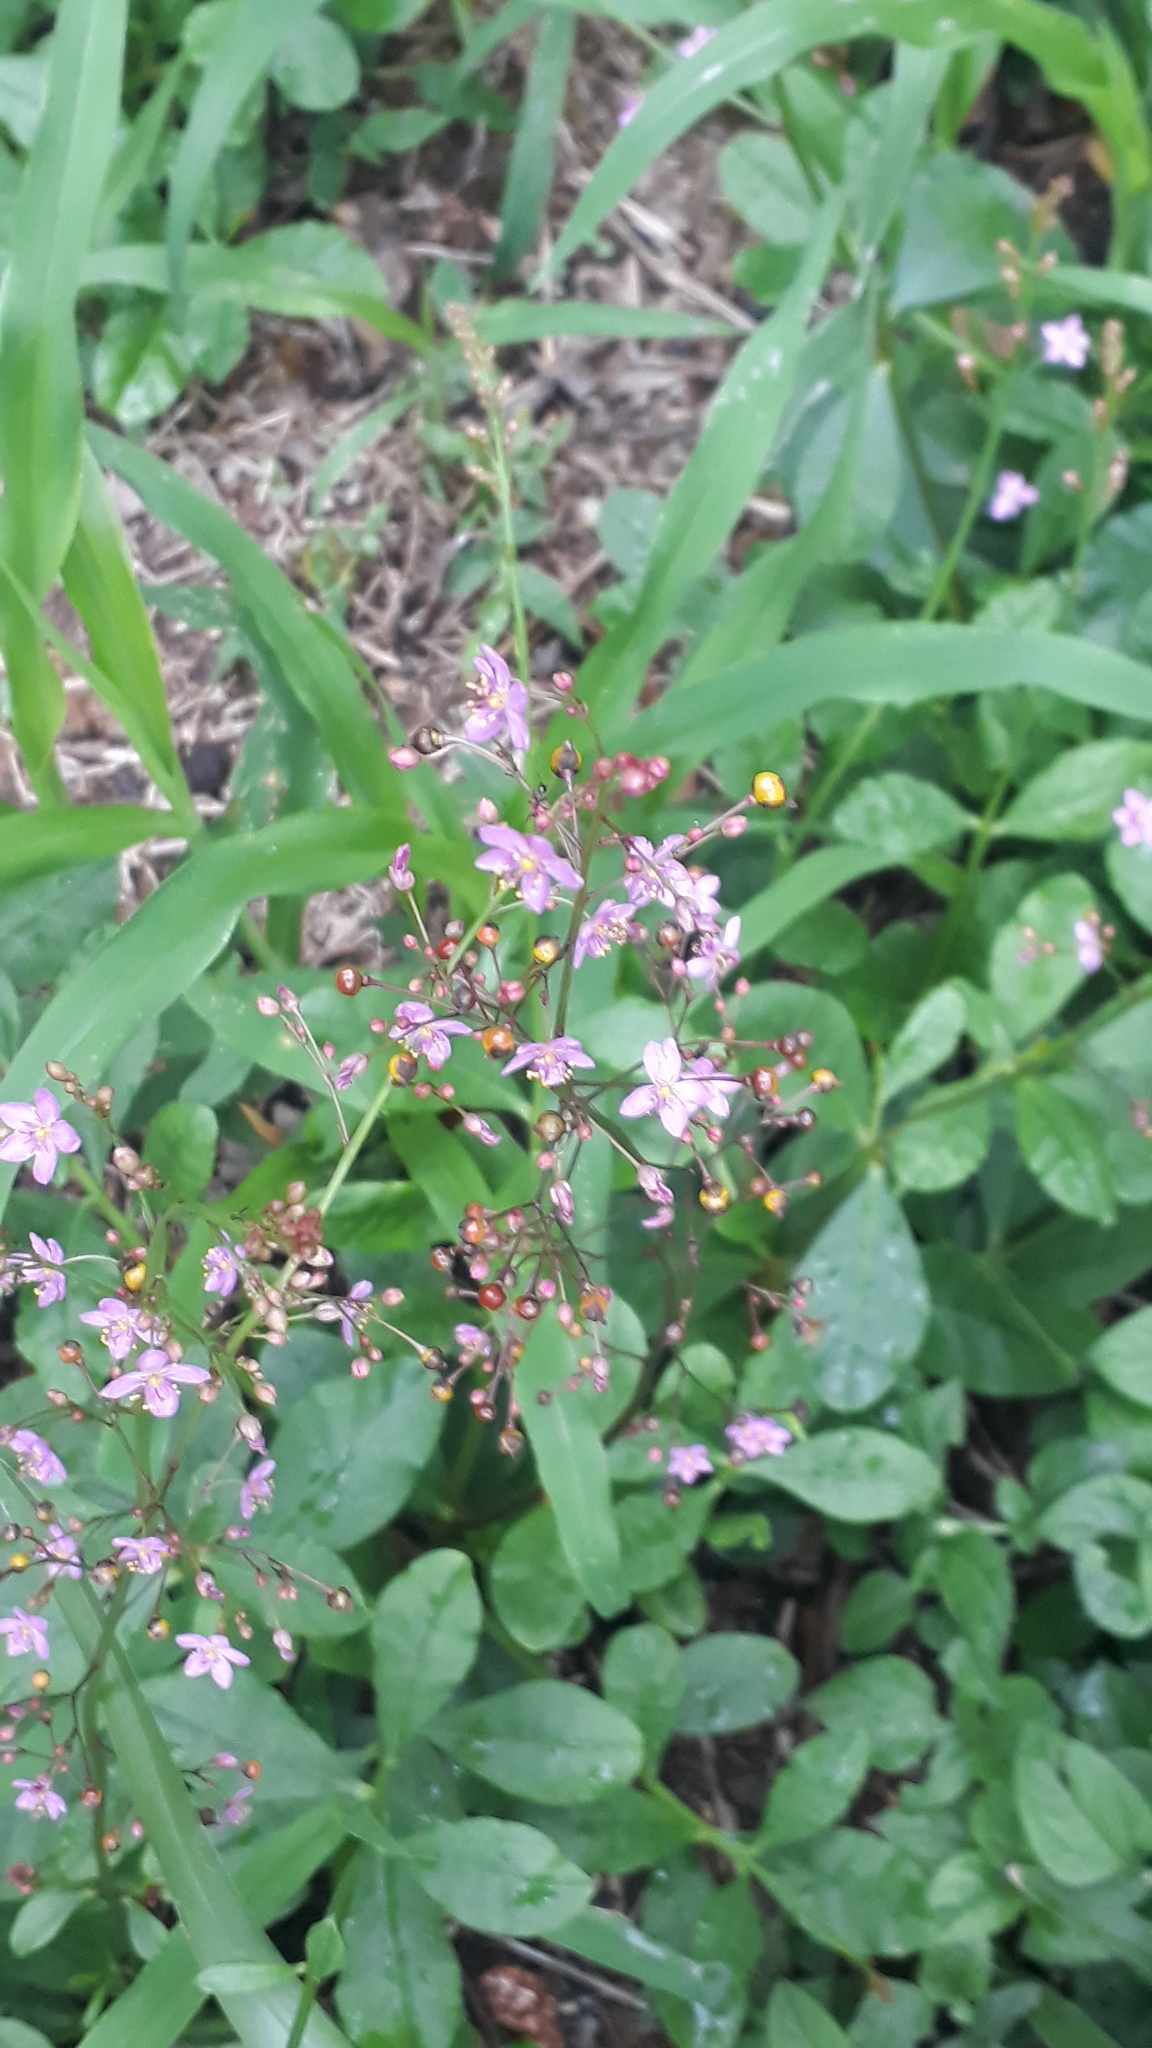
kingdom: Plantae
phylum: Tracheophyta
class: Magnoliopsida
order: Caryophyllales
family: Talinaceae
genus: Talinum
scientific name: Talinum paniculatum
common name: Jewels of opar
